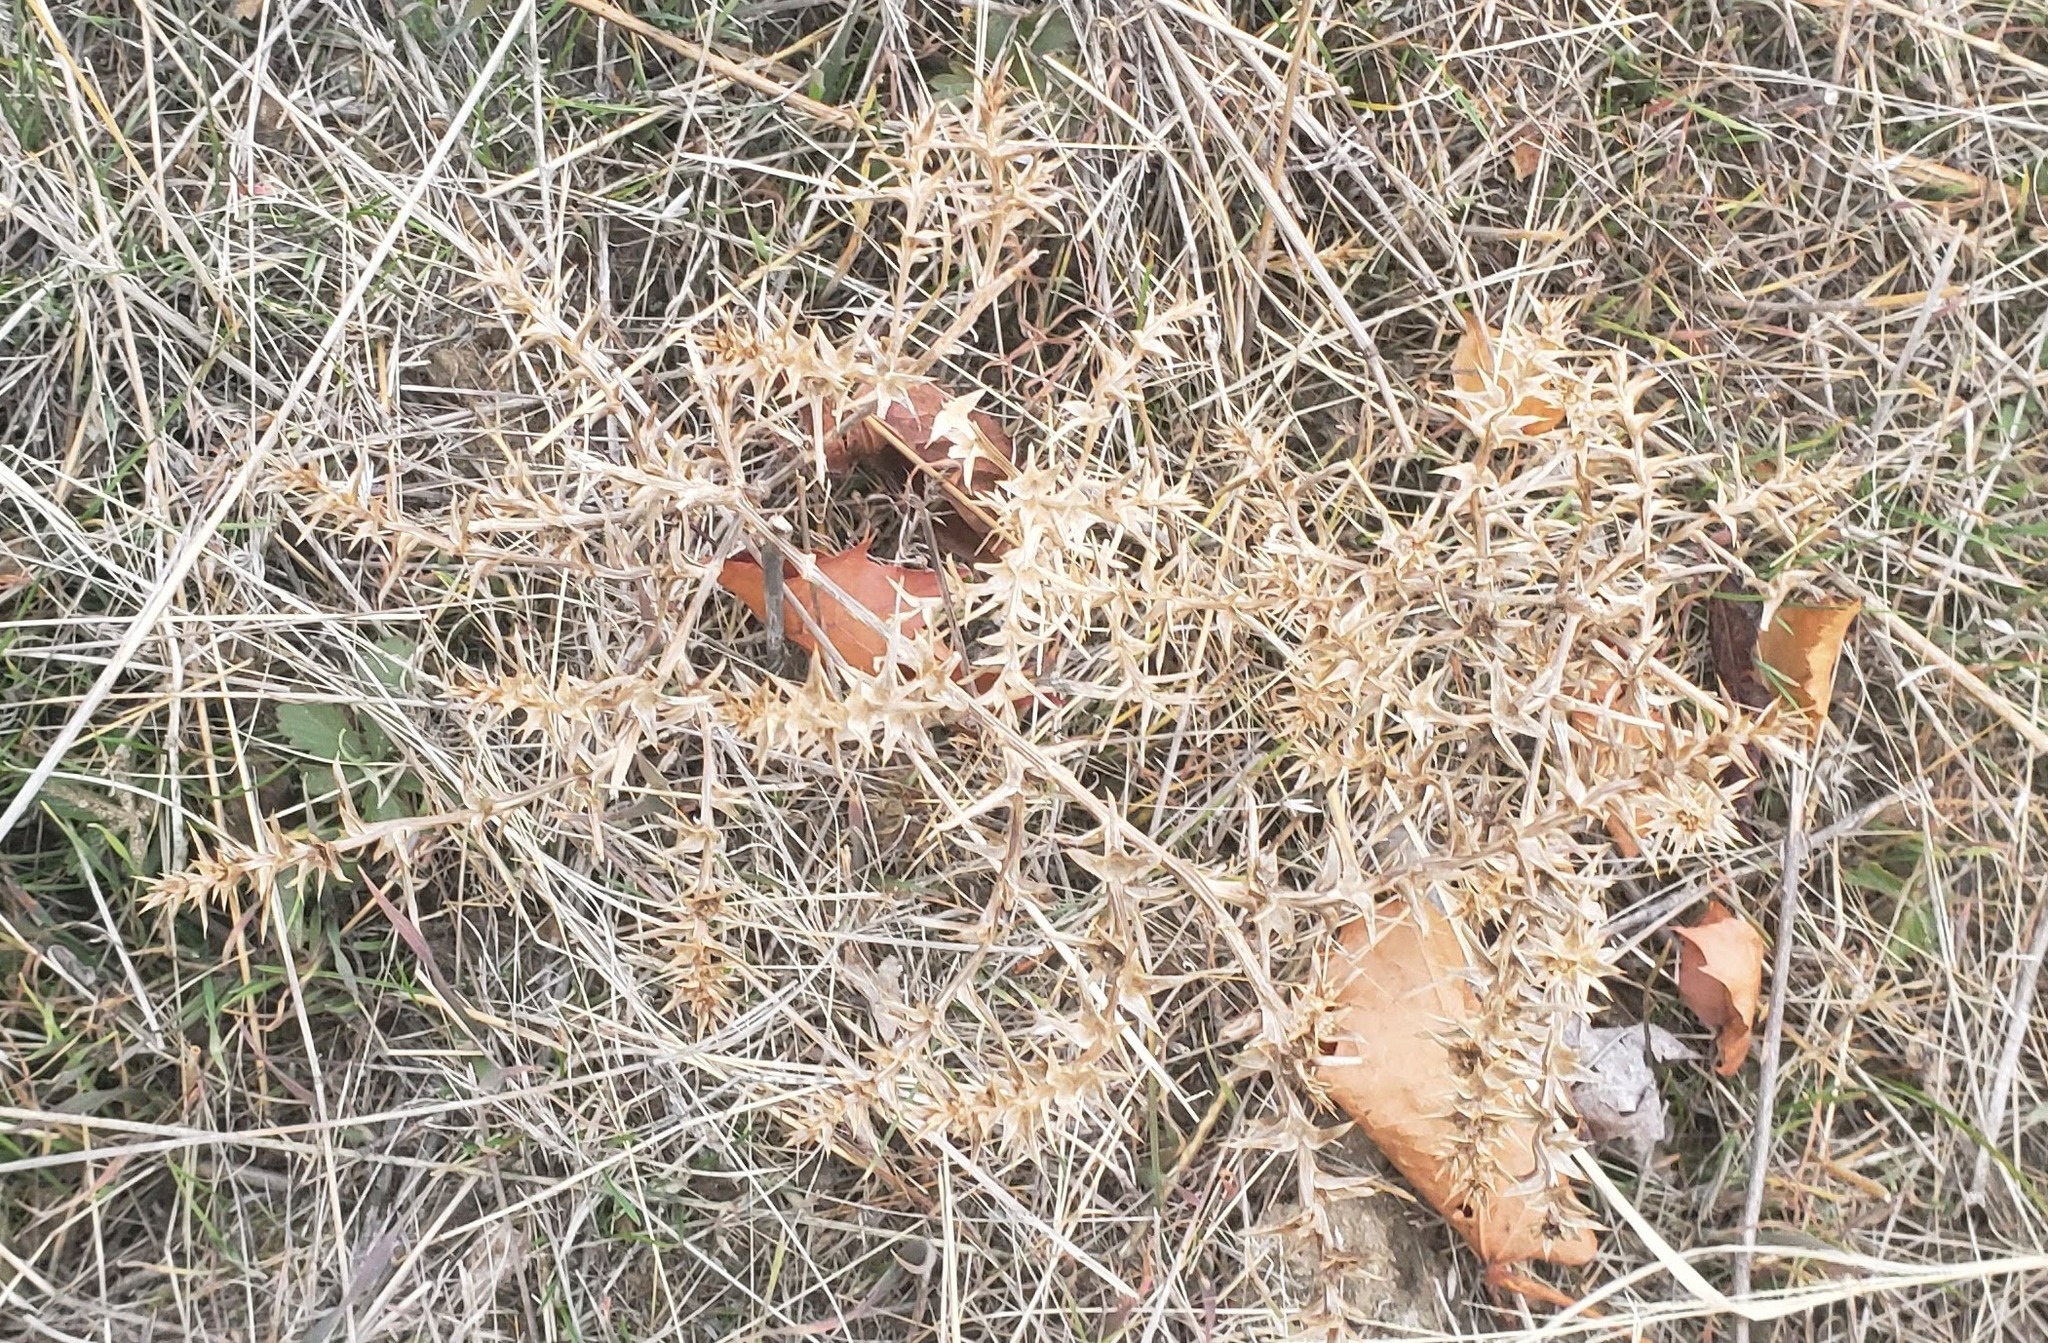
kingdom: Plantae
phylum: Tracheophyta
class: Magnoliopsida
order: Caryophyllales
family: Amaranthaceae
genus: Salsola
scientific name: Salsola tragus
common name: Prickly russian thistle
